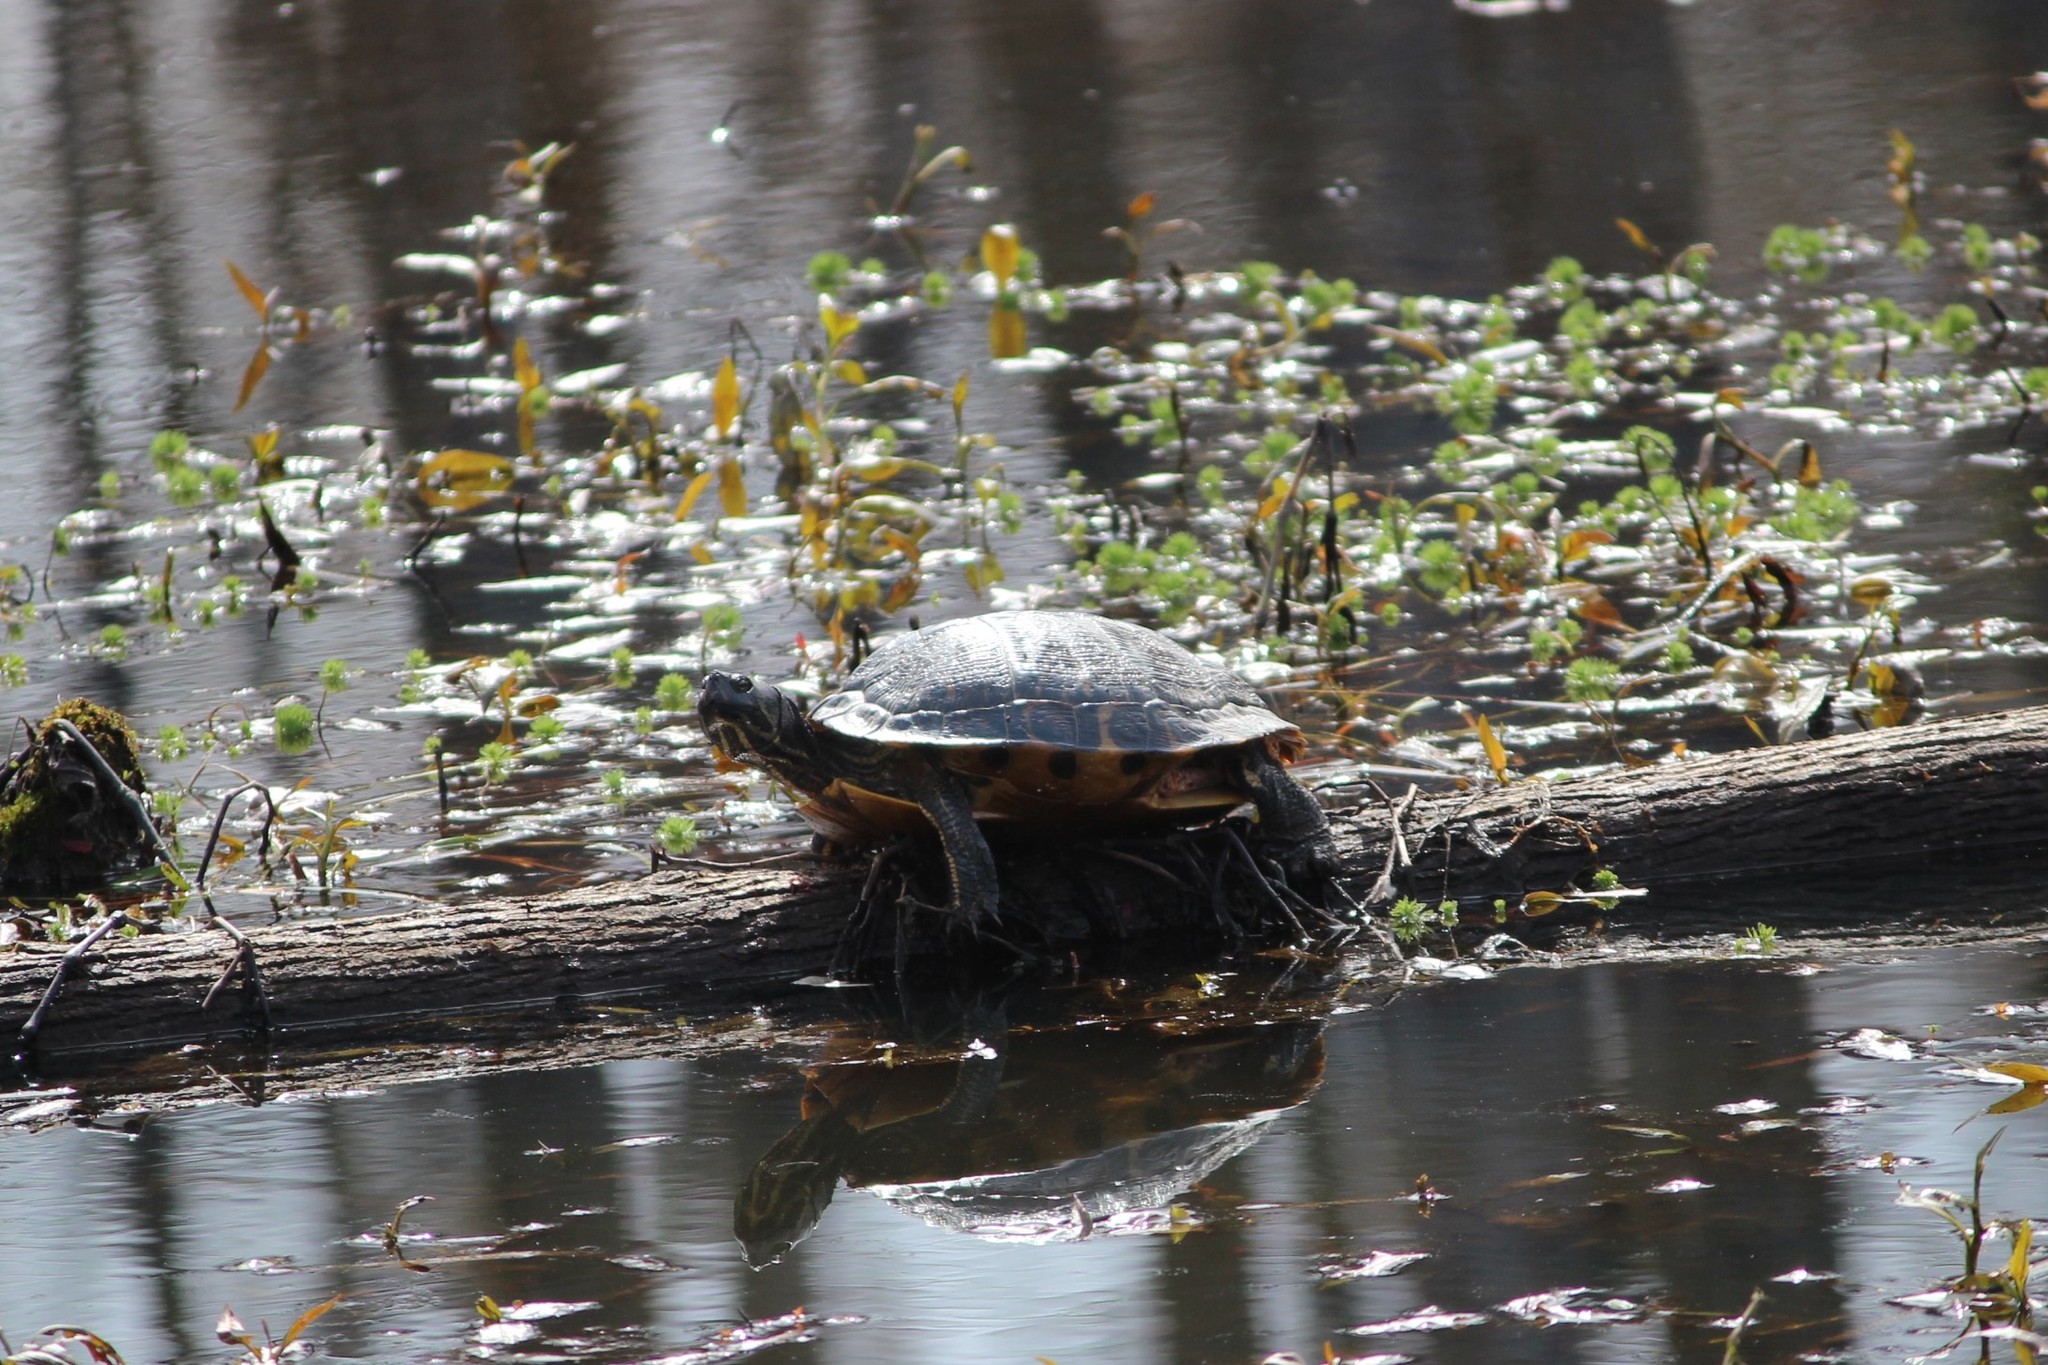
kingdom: Animalia
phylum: Chordata
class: Testudines
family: Emydidae
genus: Trachemys
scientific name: Trachemys scripta
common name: Slider
